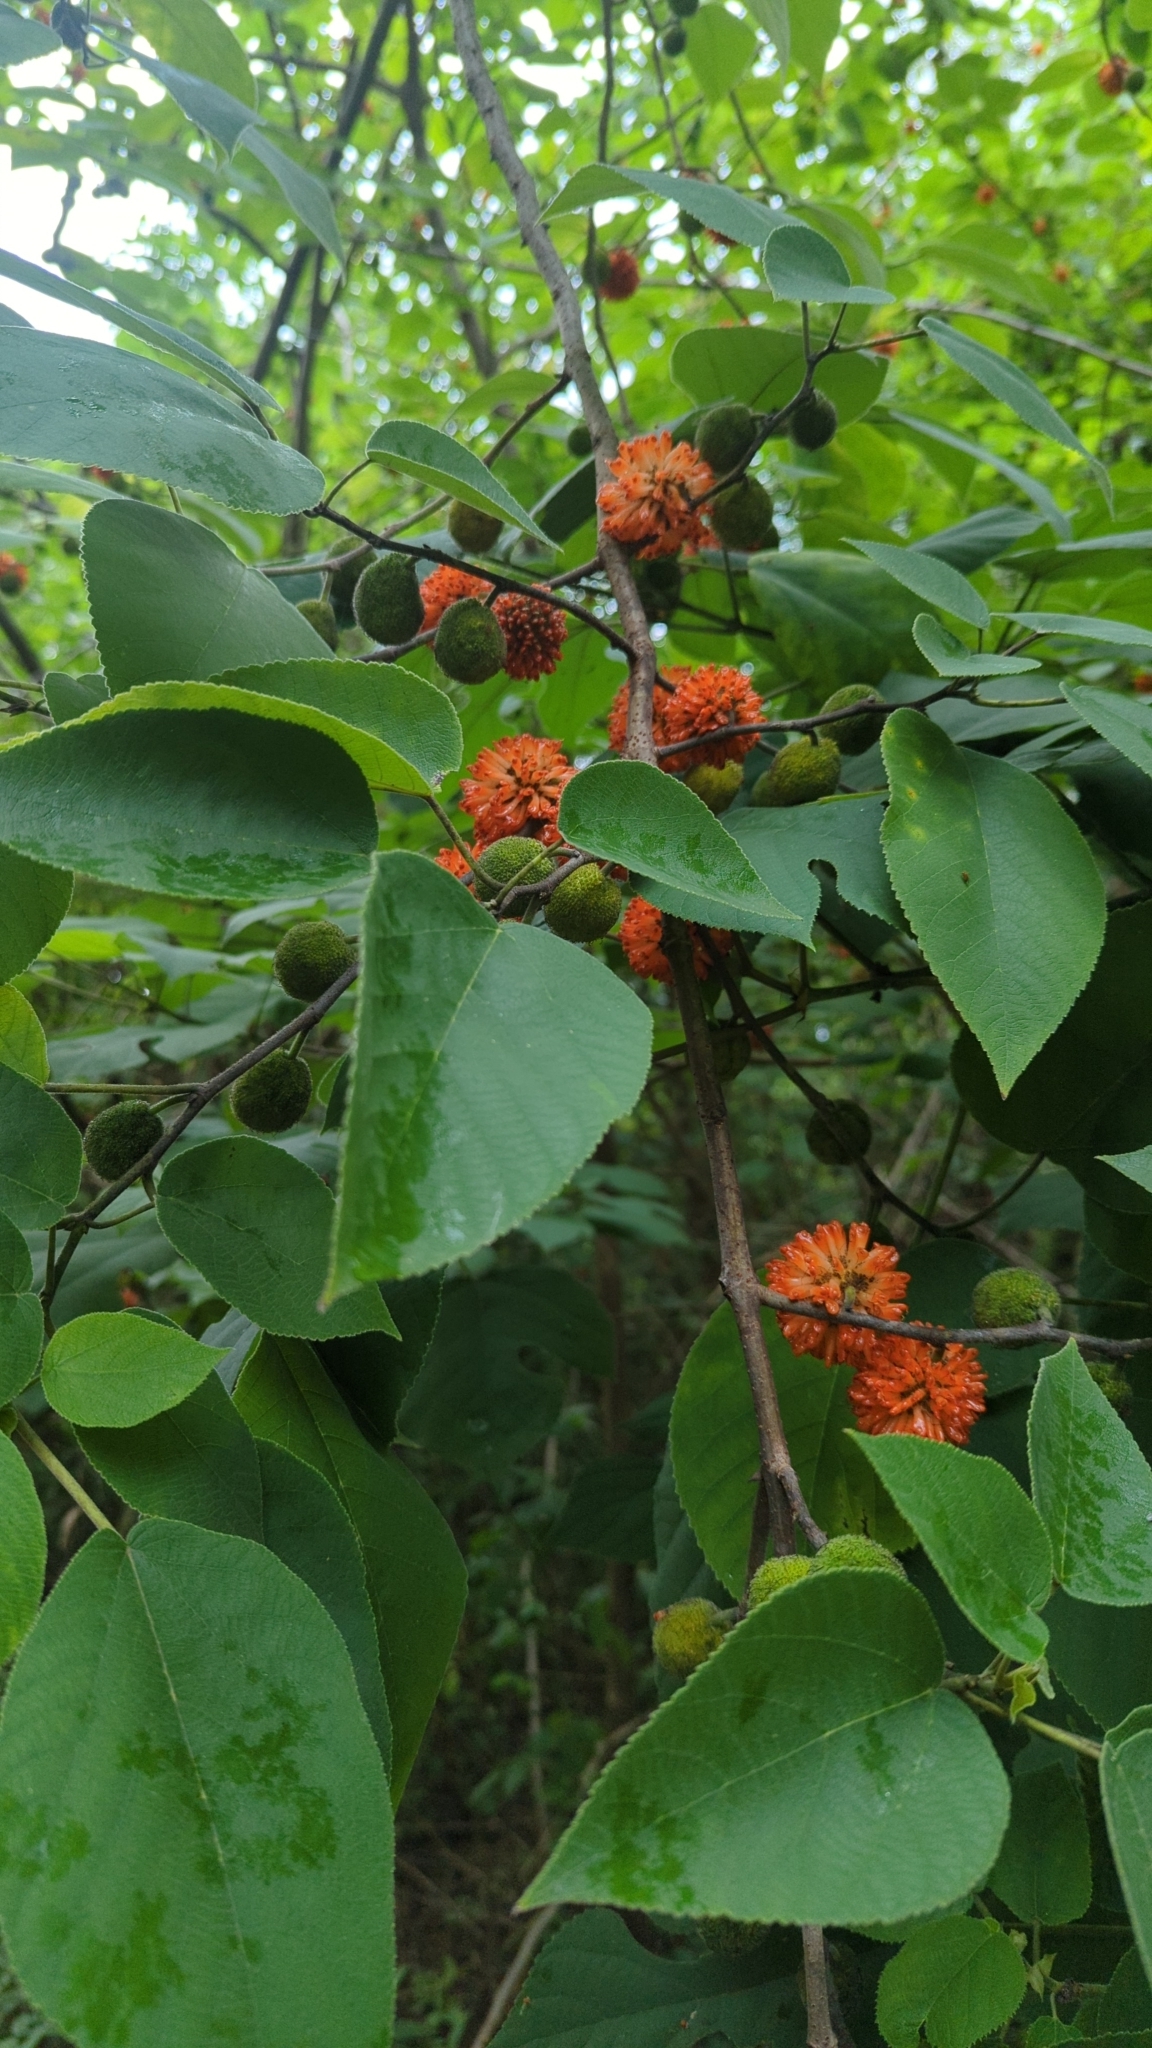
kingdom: Plantae
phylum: Tracheophyta
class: Magnoliopsida
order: Rosales
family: Moraceae
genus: Broussonetia
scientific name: Broussonetia papyrifera
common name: Paper mulberry
